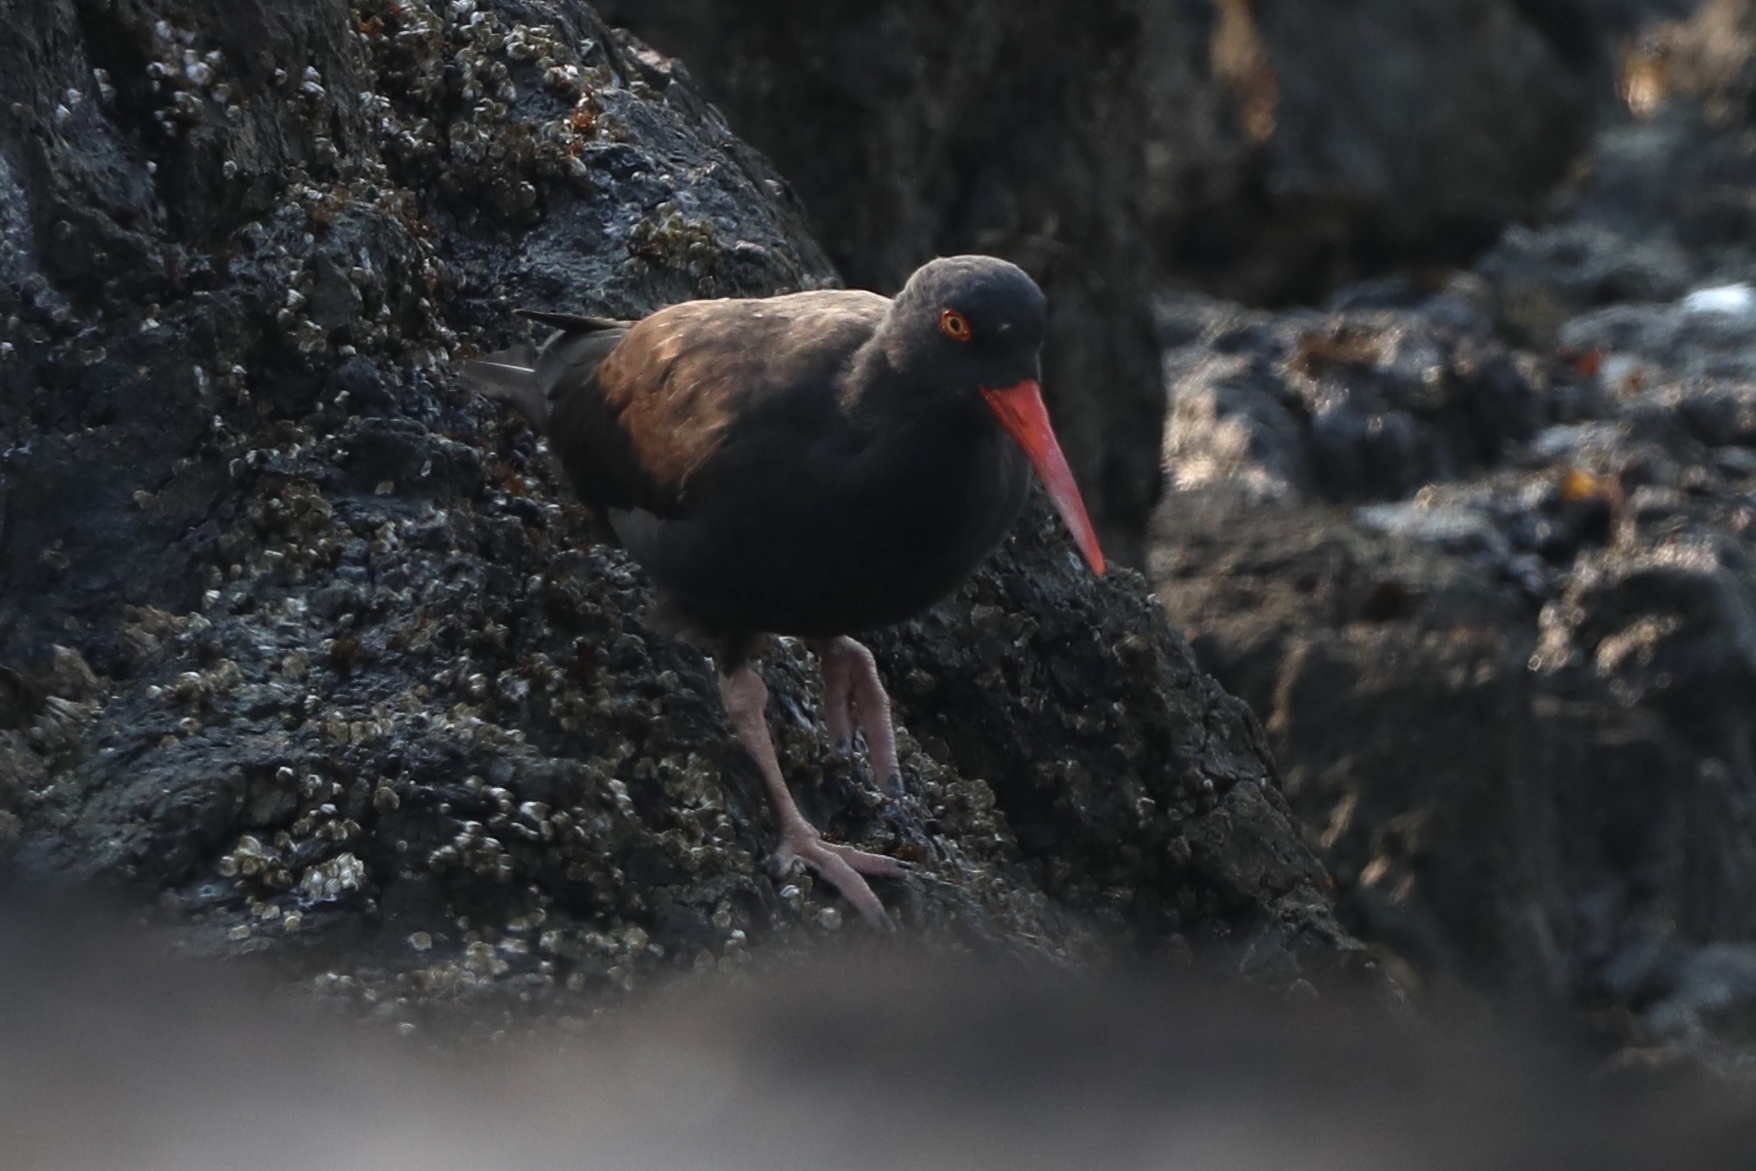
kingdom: Animalia
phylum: Chordata
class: Aves
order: Charadriiformes
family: Haematopodidae
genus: Haematopus
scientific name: Haematopus bachmani
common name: Black oystercatcher
